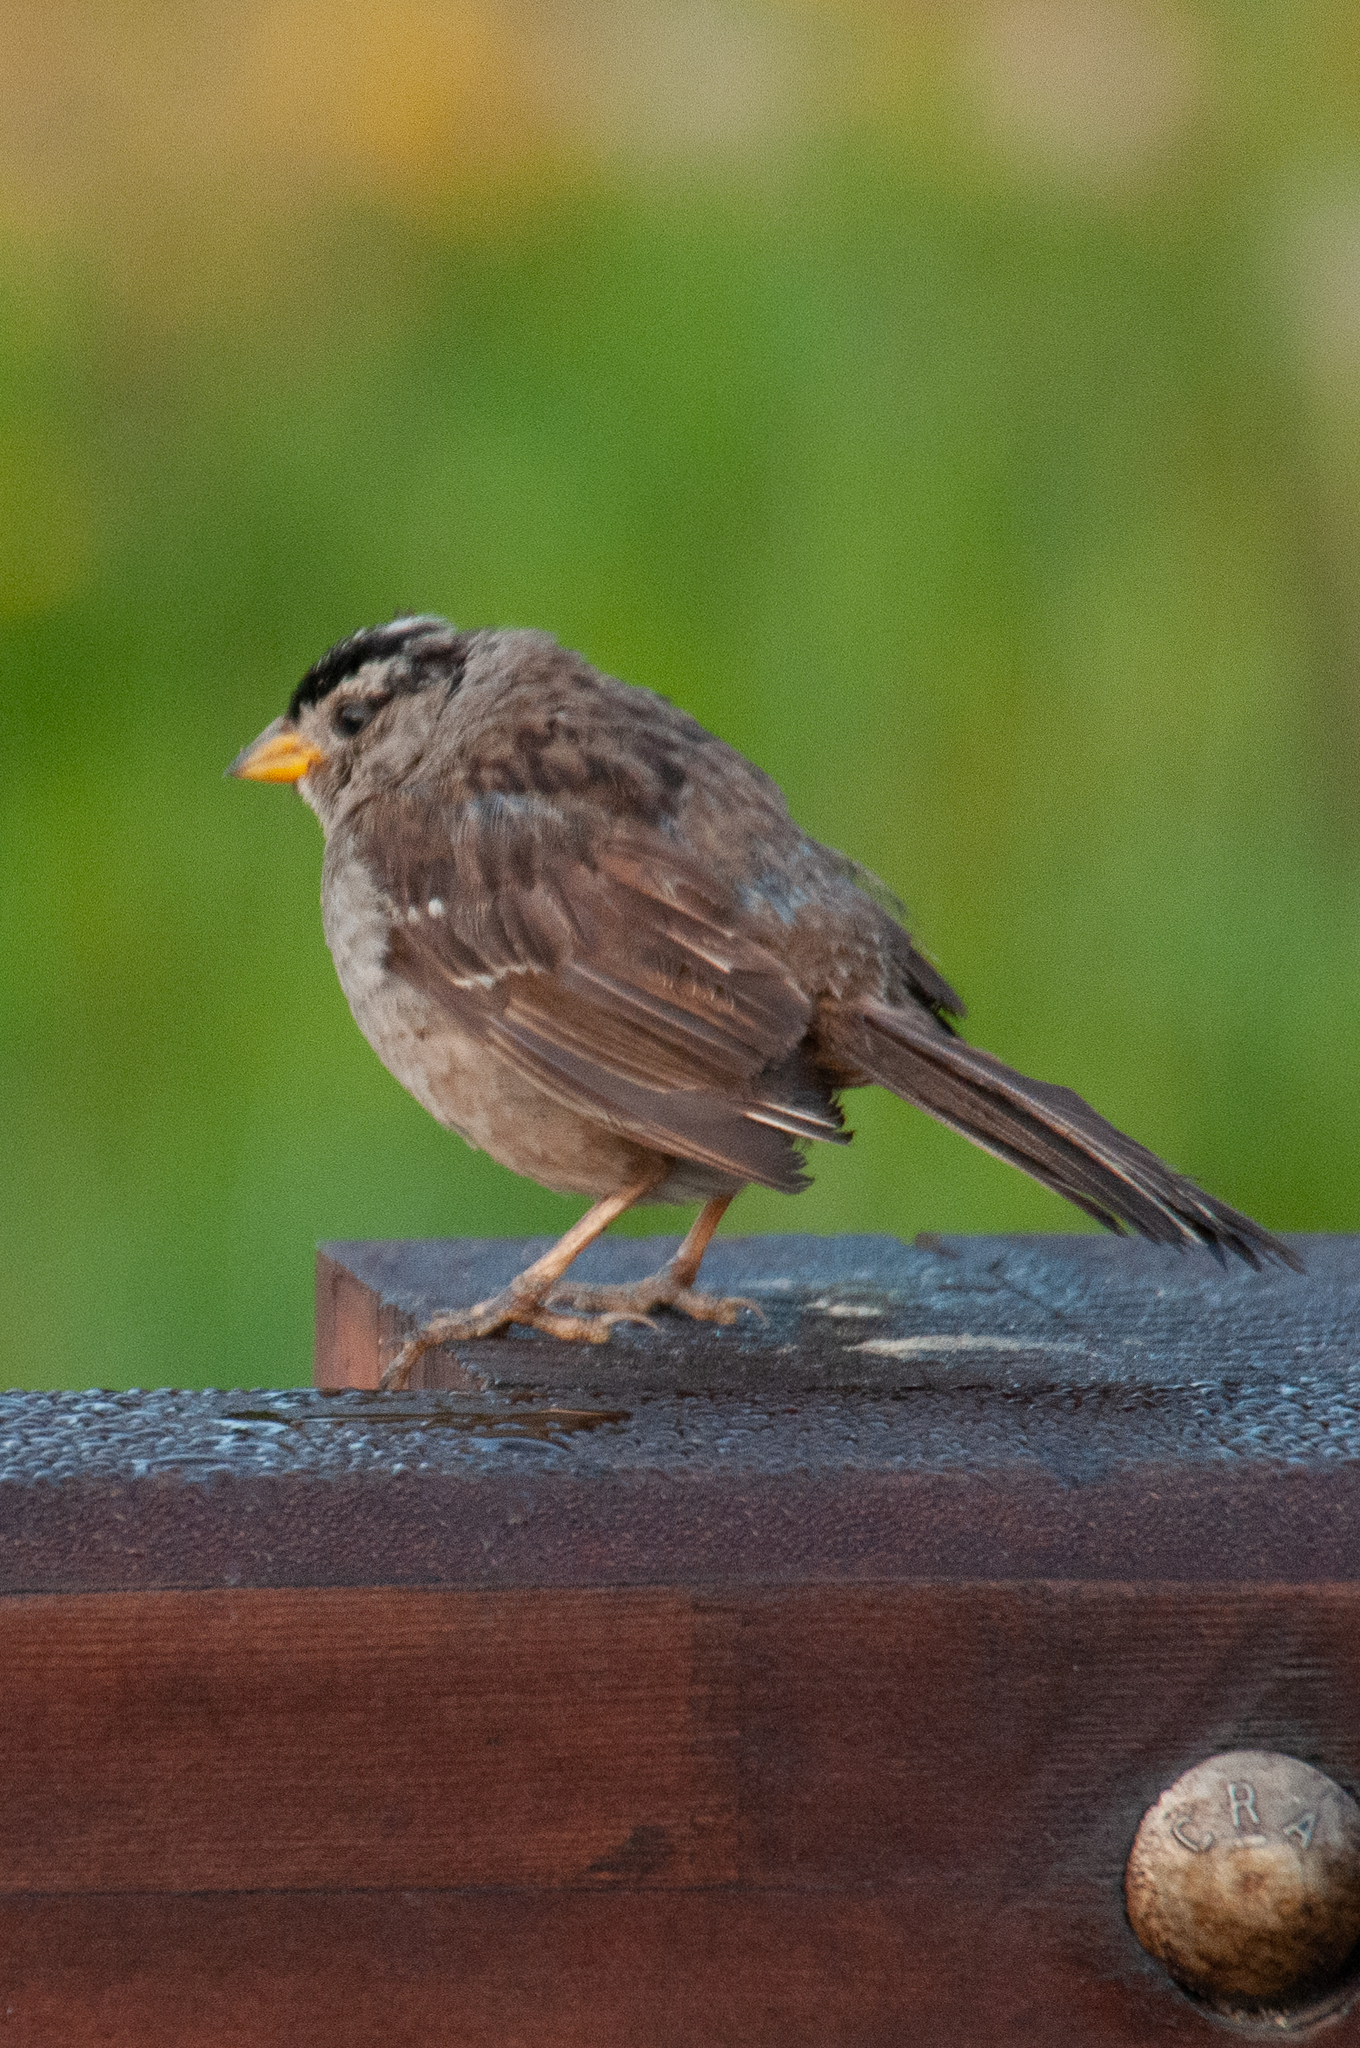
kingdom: Animalia
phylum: Chordata
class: Aves
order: Passeriformes
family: Passerellidae
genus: Zonotrichia
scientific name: Zonotrichia leucophrys
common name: White-crowned sparrow
